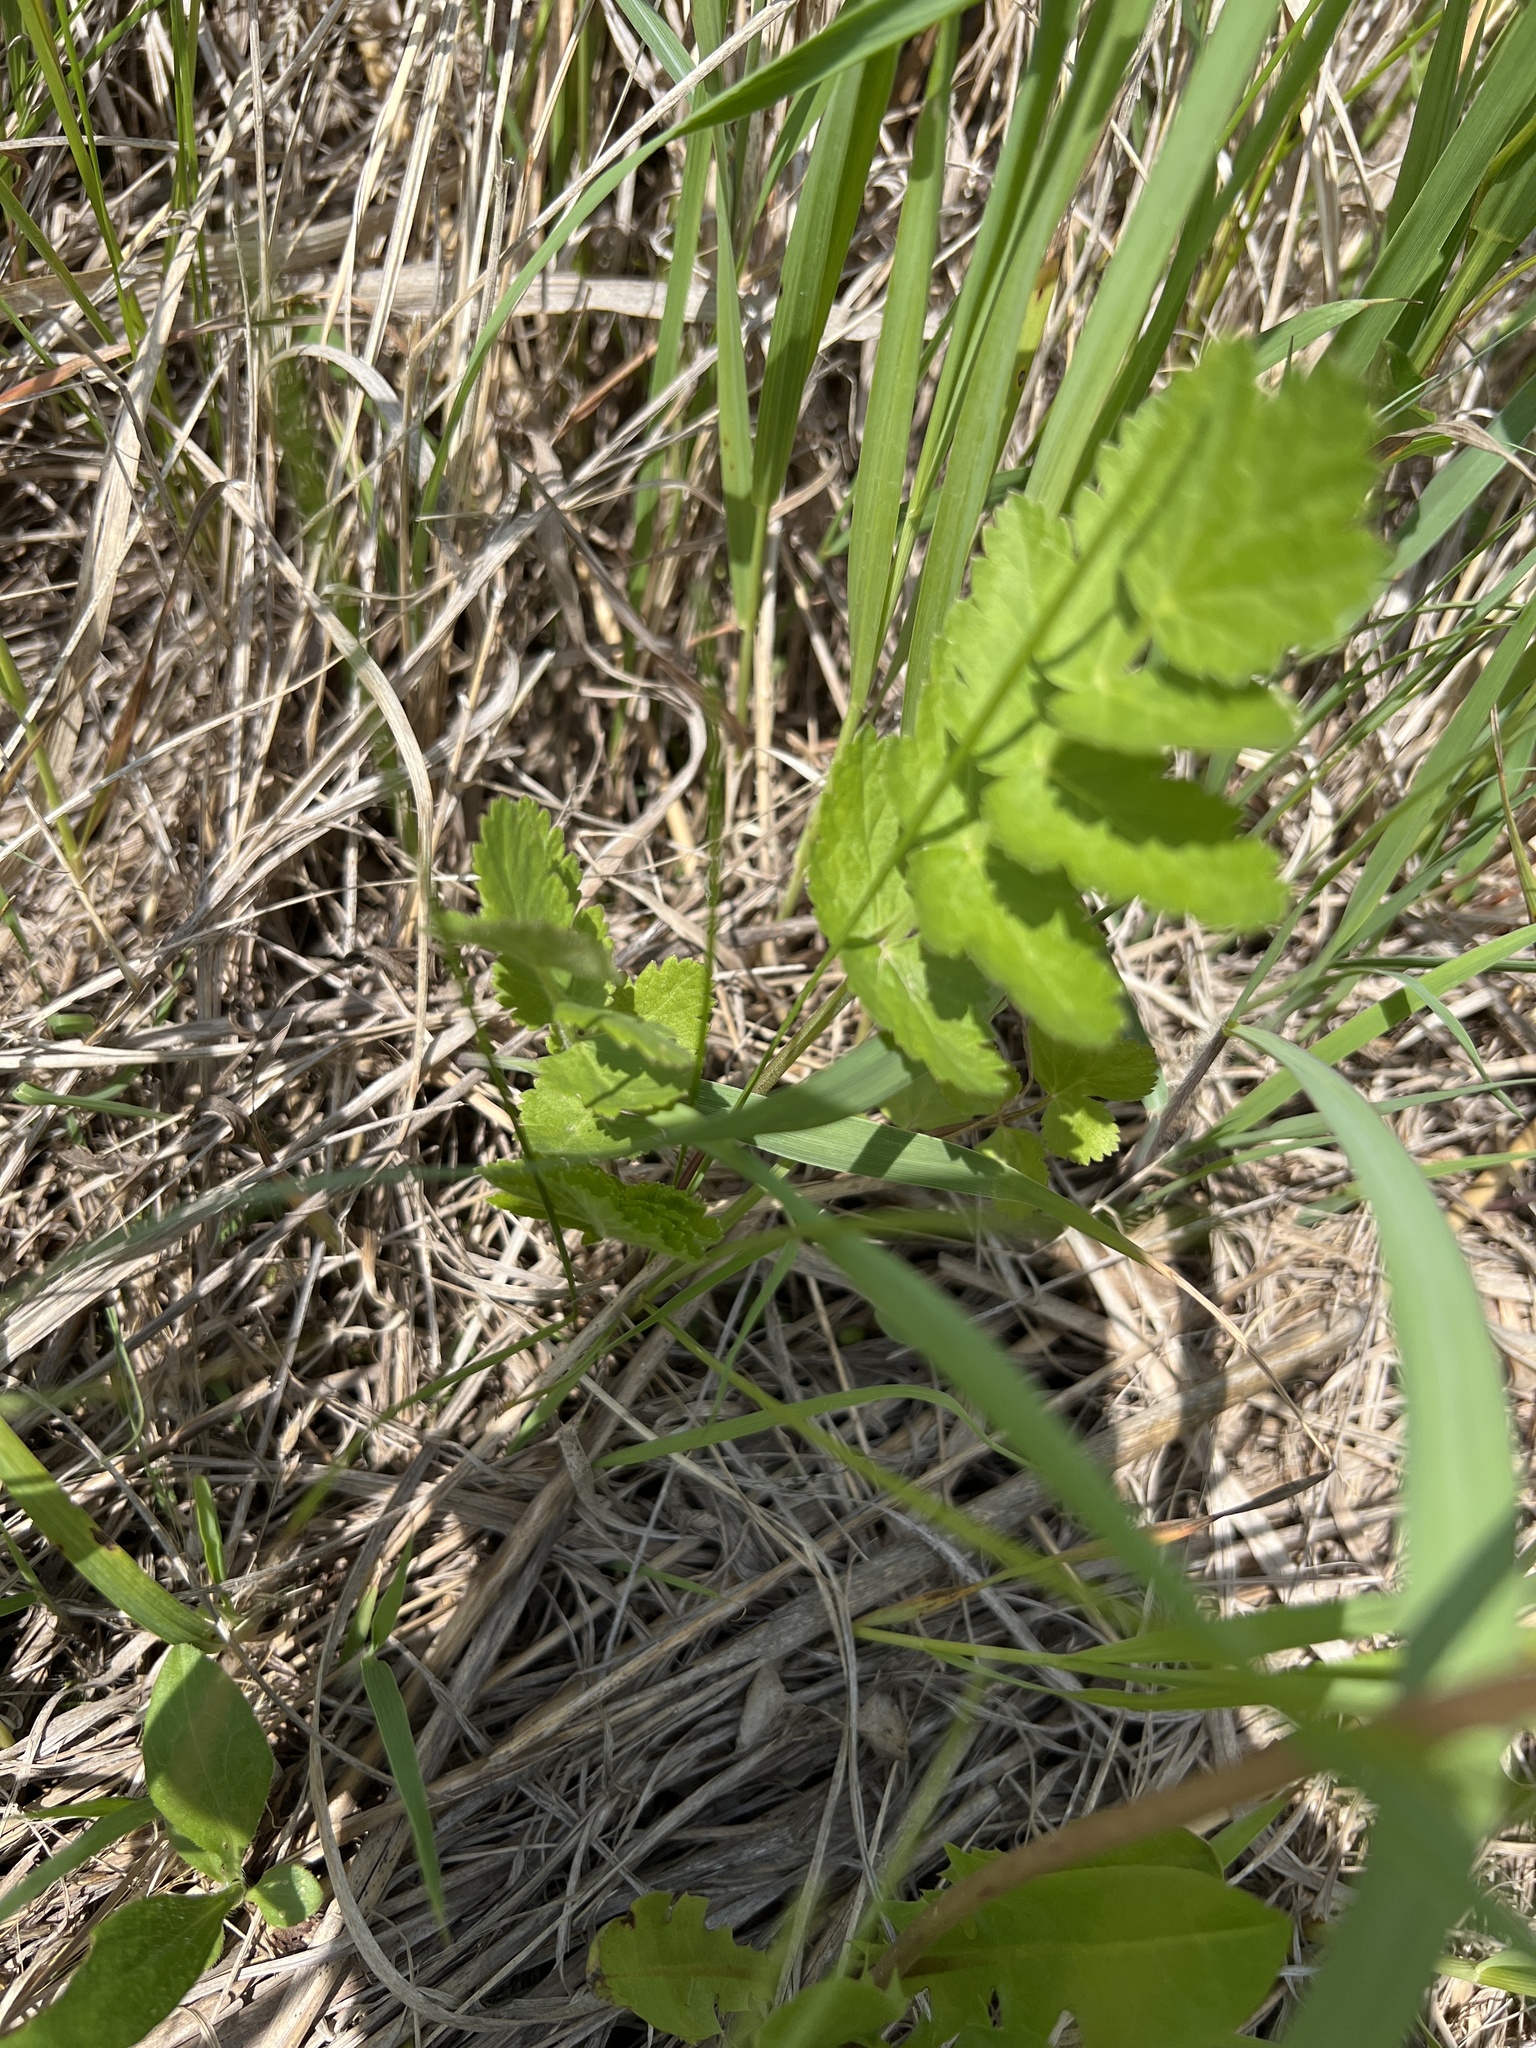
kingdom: Plantae
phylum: Tracheophyta
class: Magnoliopsida
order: Apiales
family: Apiaceae
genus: Pastinaca
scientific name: Pastinaca sativa
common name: Wild parsnip
